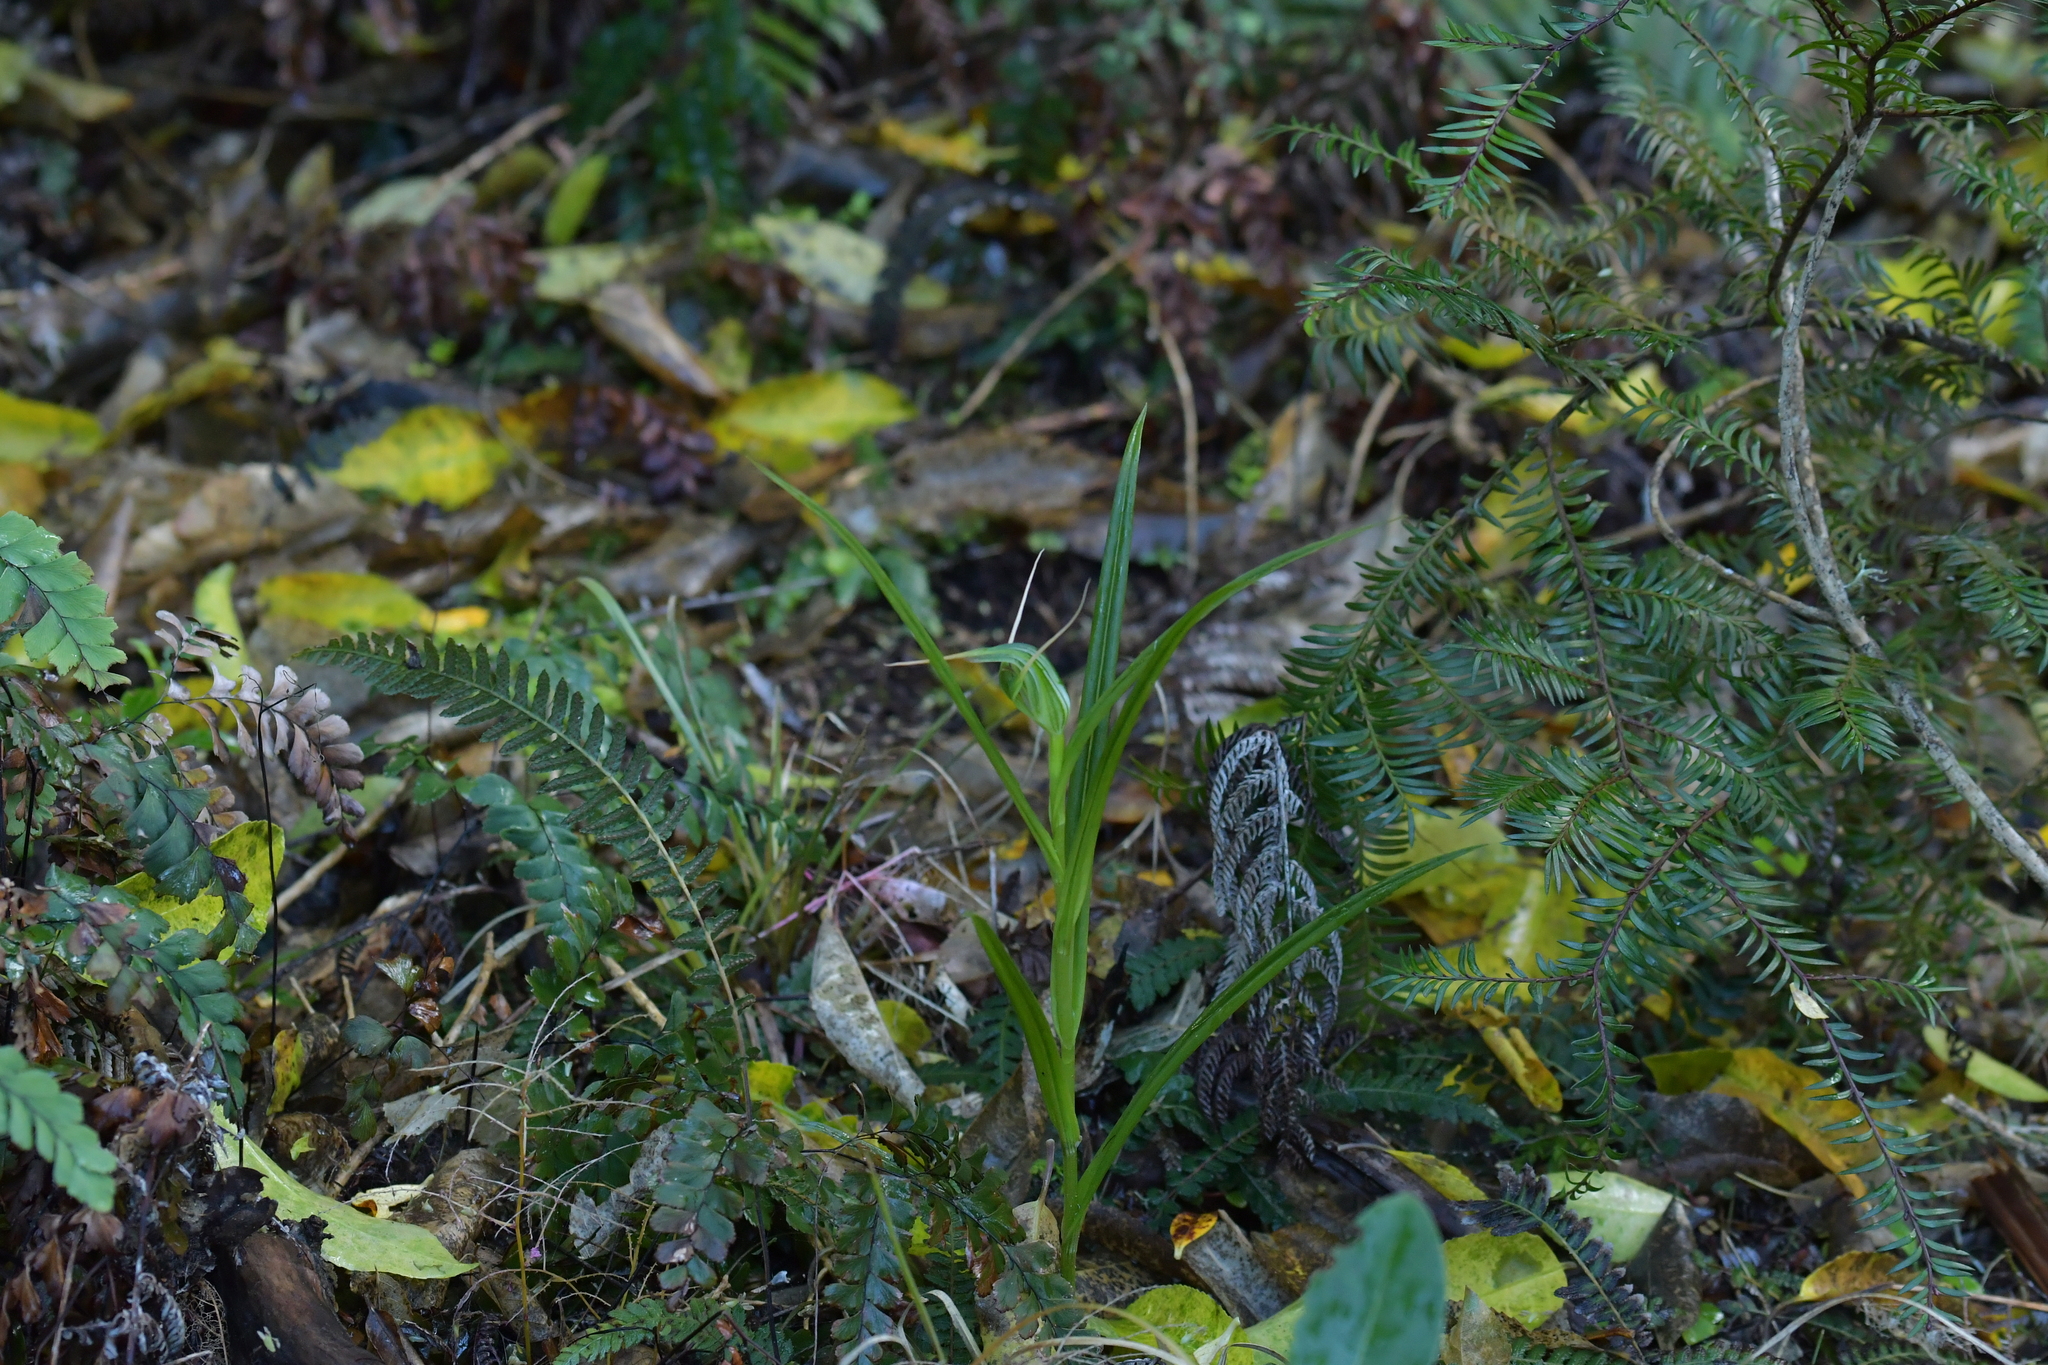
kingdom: Plantae
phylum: Tracheophyta
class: Liliopsida
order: Asparagales
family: Orchidaceae
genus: Pterostylis
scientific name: Pterostylis banksii
